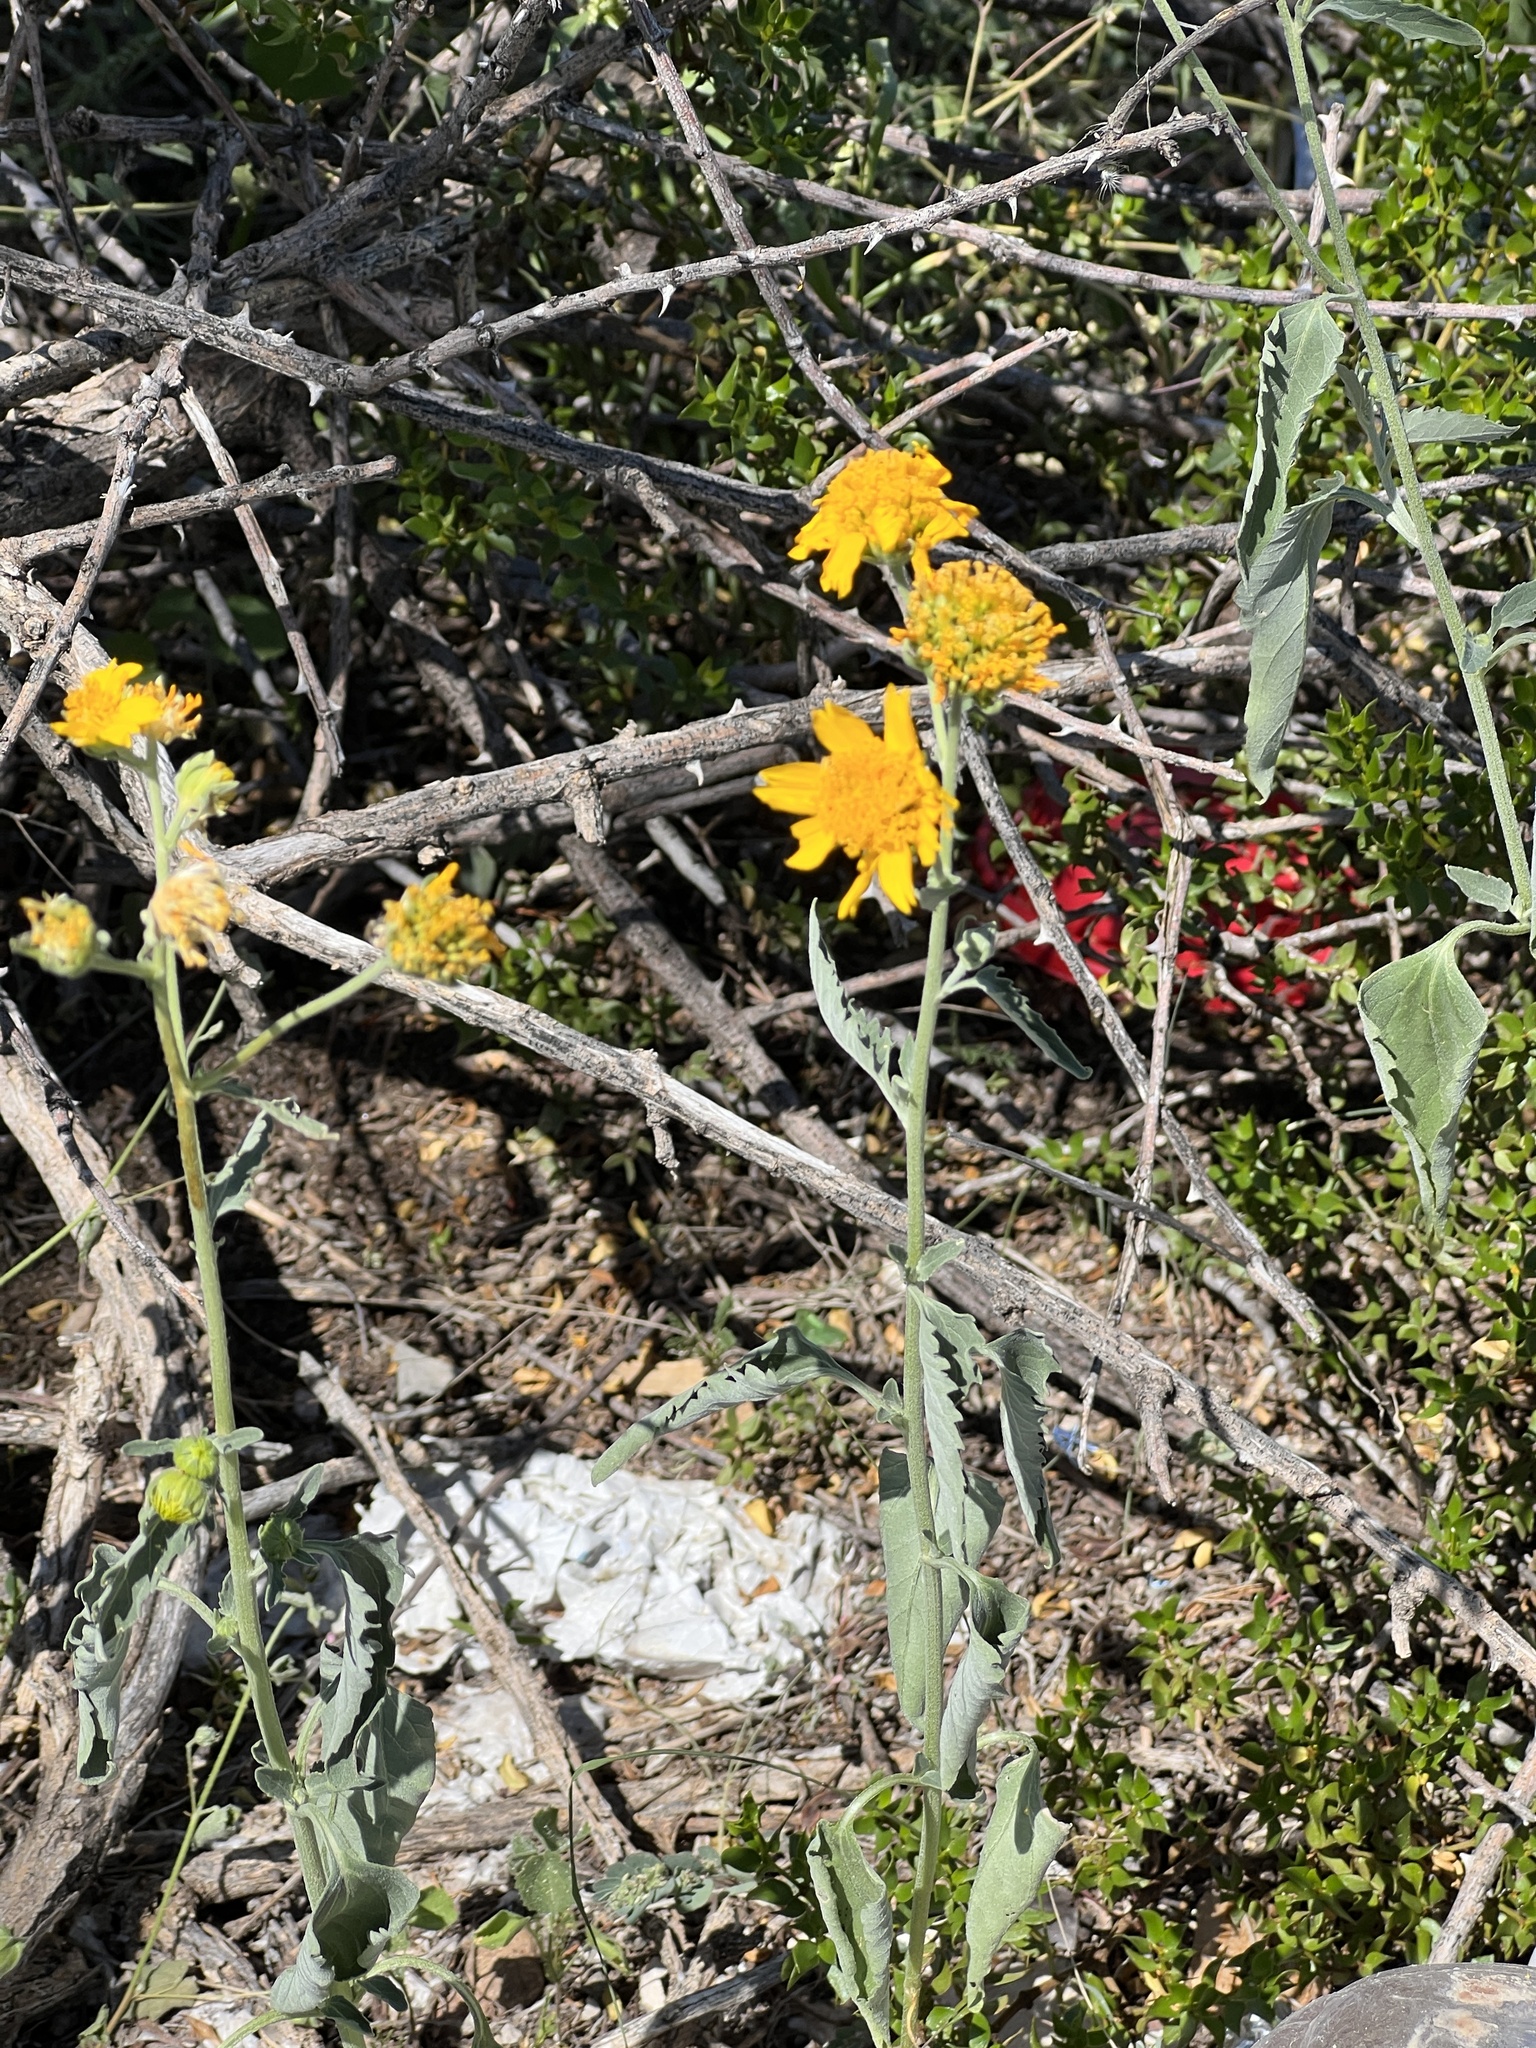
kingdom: Plantae
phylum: Tracheophyta
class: Magnoliopsida
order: Asterales
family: Asteraceae
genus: Verbesina
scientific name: Verbesina encelioides
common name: Golden crownbeard
